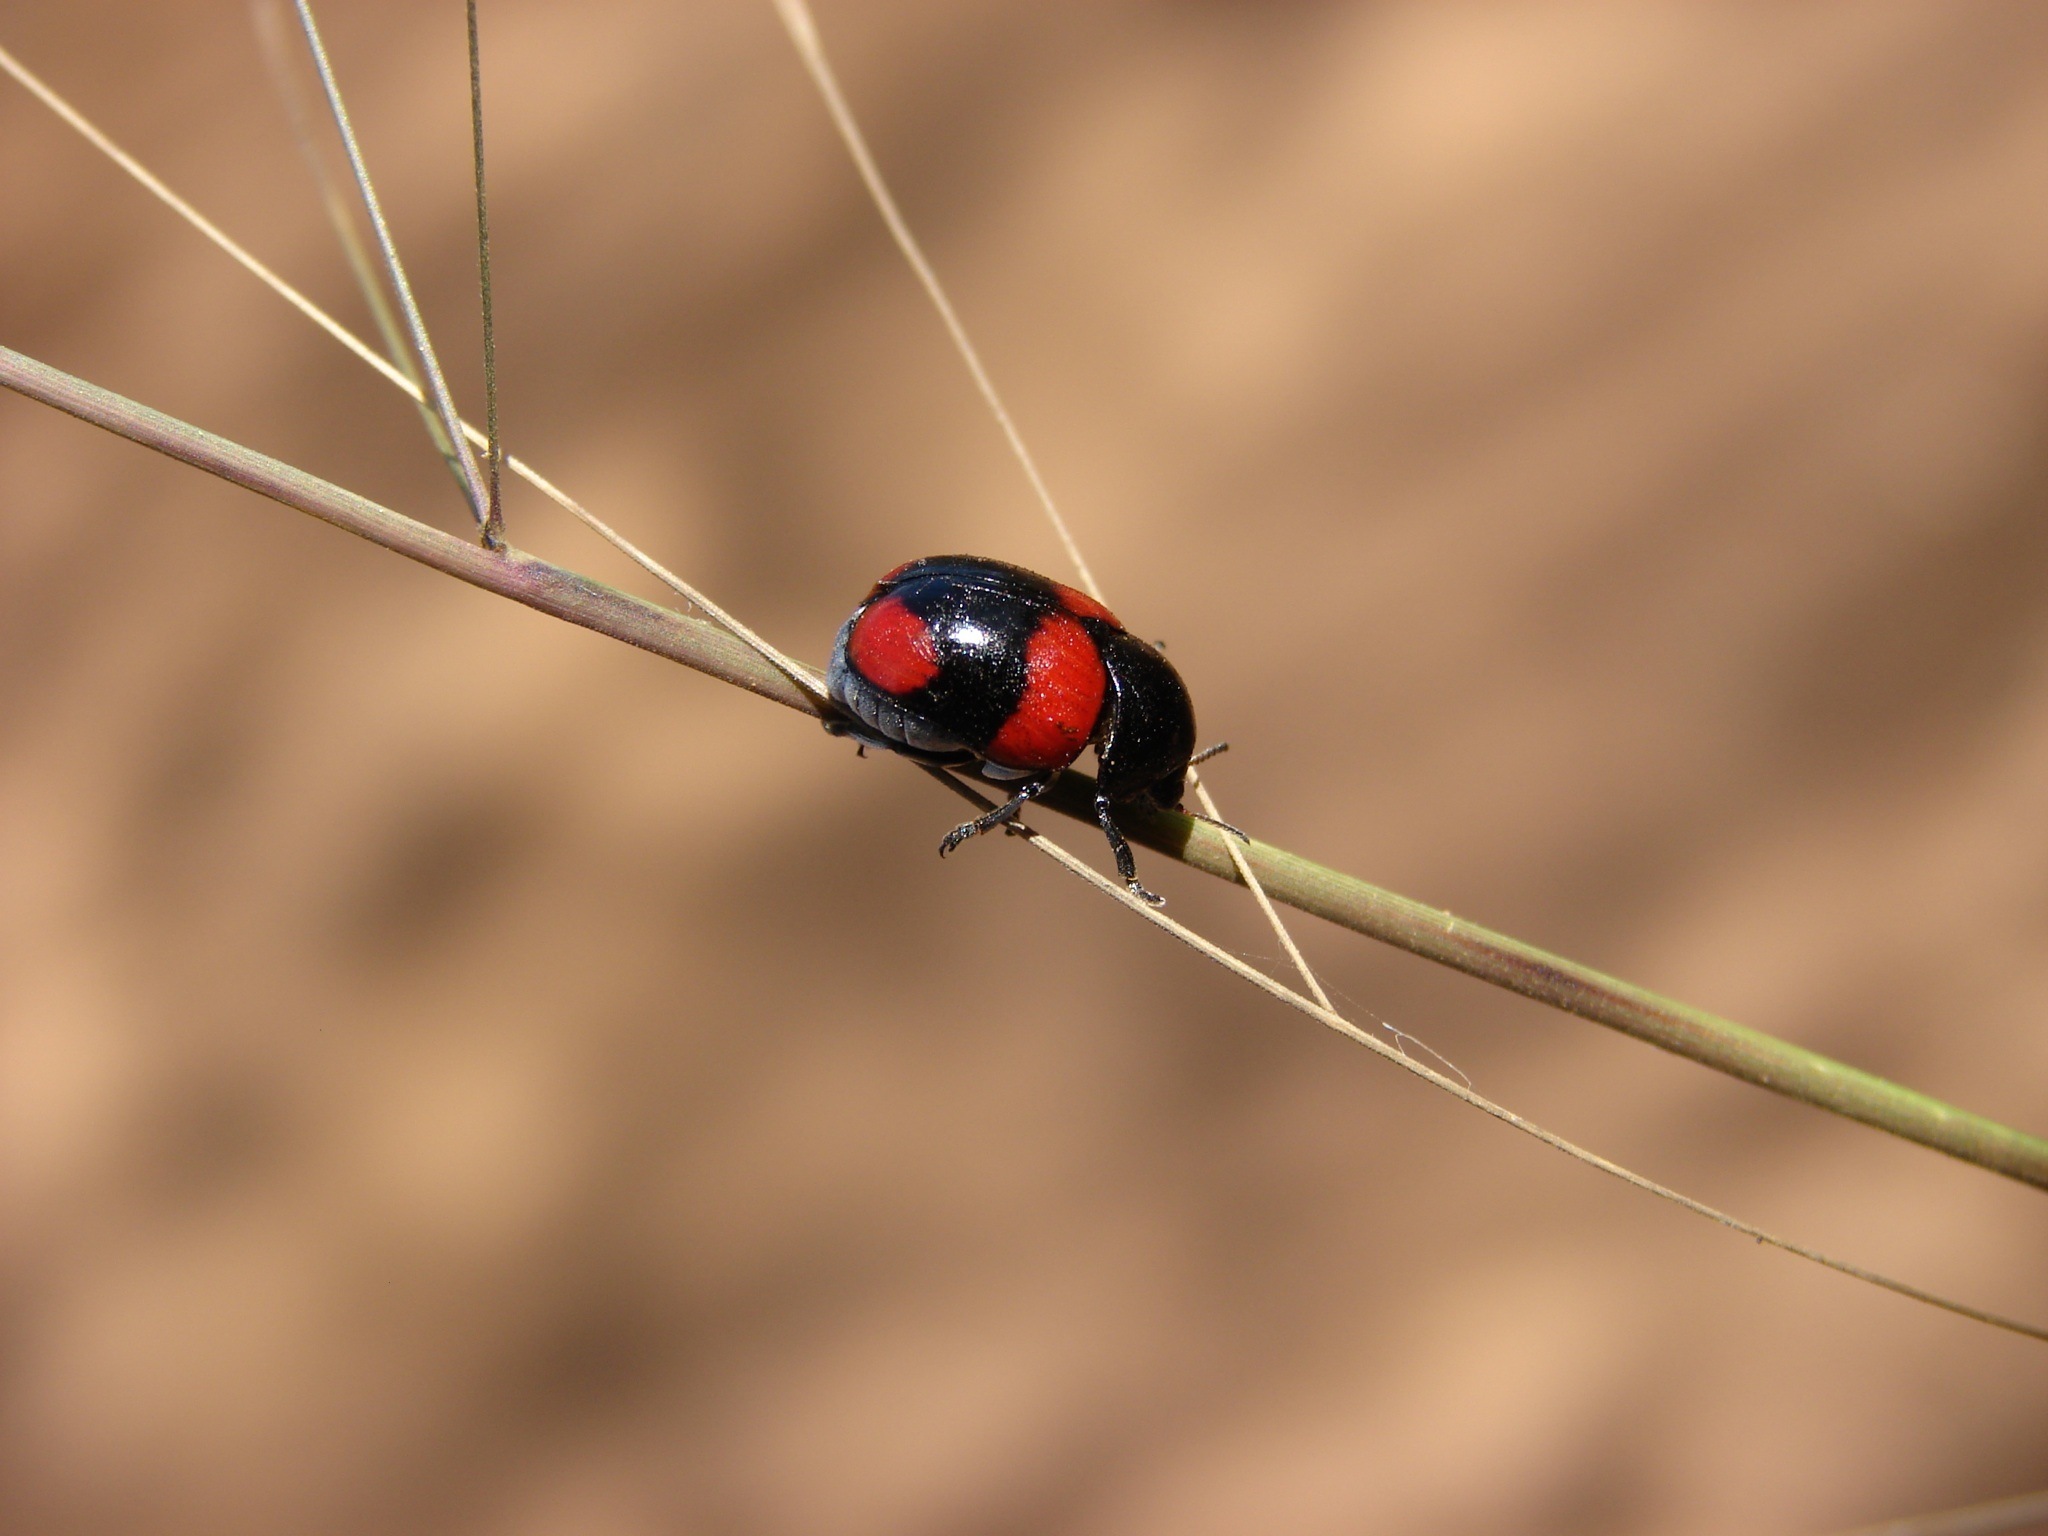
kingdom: Animalia
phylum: Arthropoda
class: Insecta
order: Coleoptera
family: Chrysomelidae
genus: Clythrina
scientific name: Clythrina
